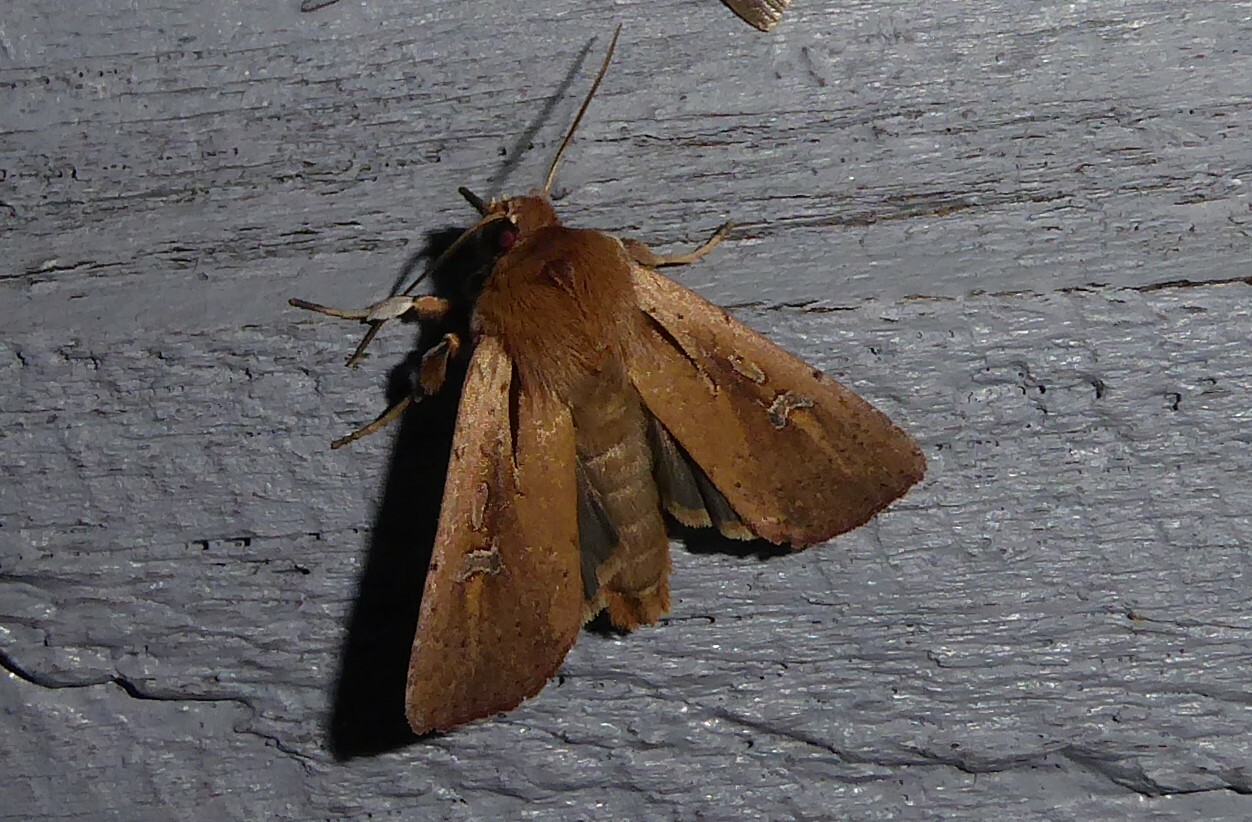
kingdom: Animalia
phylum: Arthropoda
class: Insecta
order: Lepidoptera
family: Noctuidae
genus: Ichneutica
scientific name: Ichneutica atristriga
